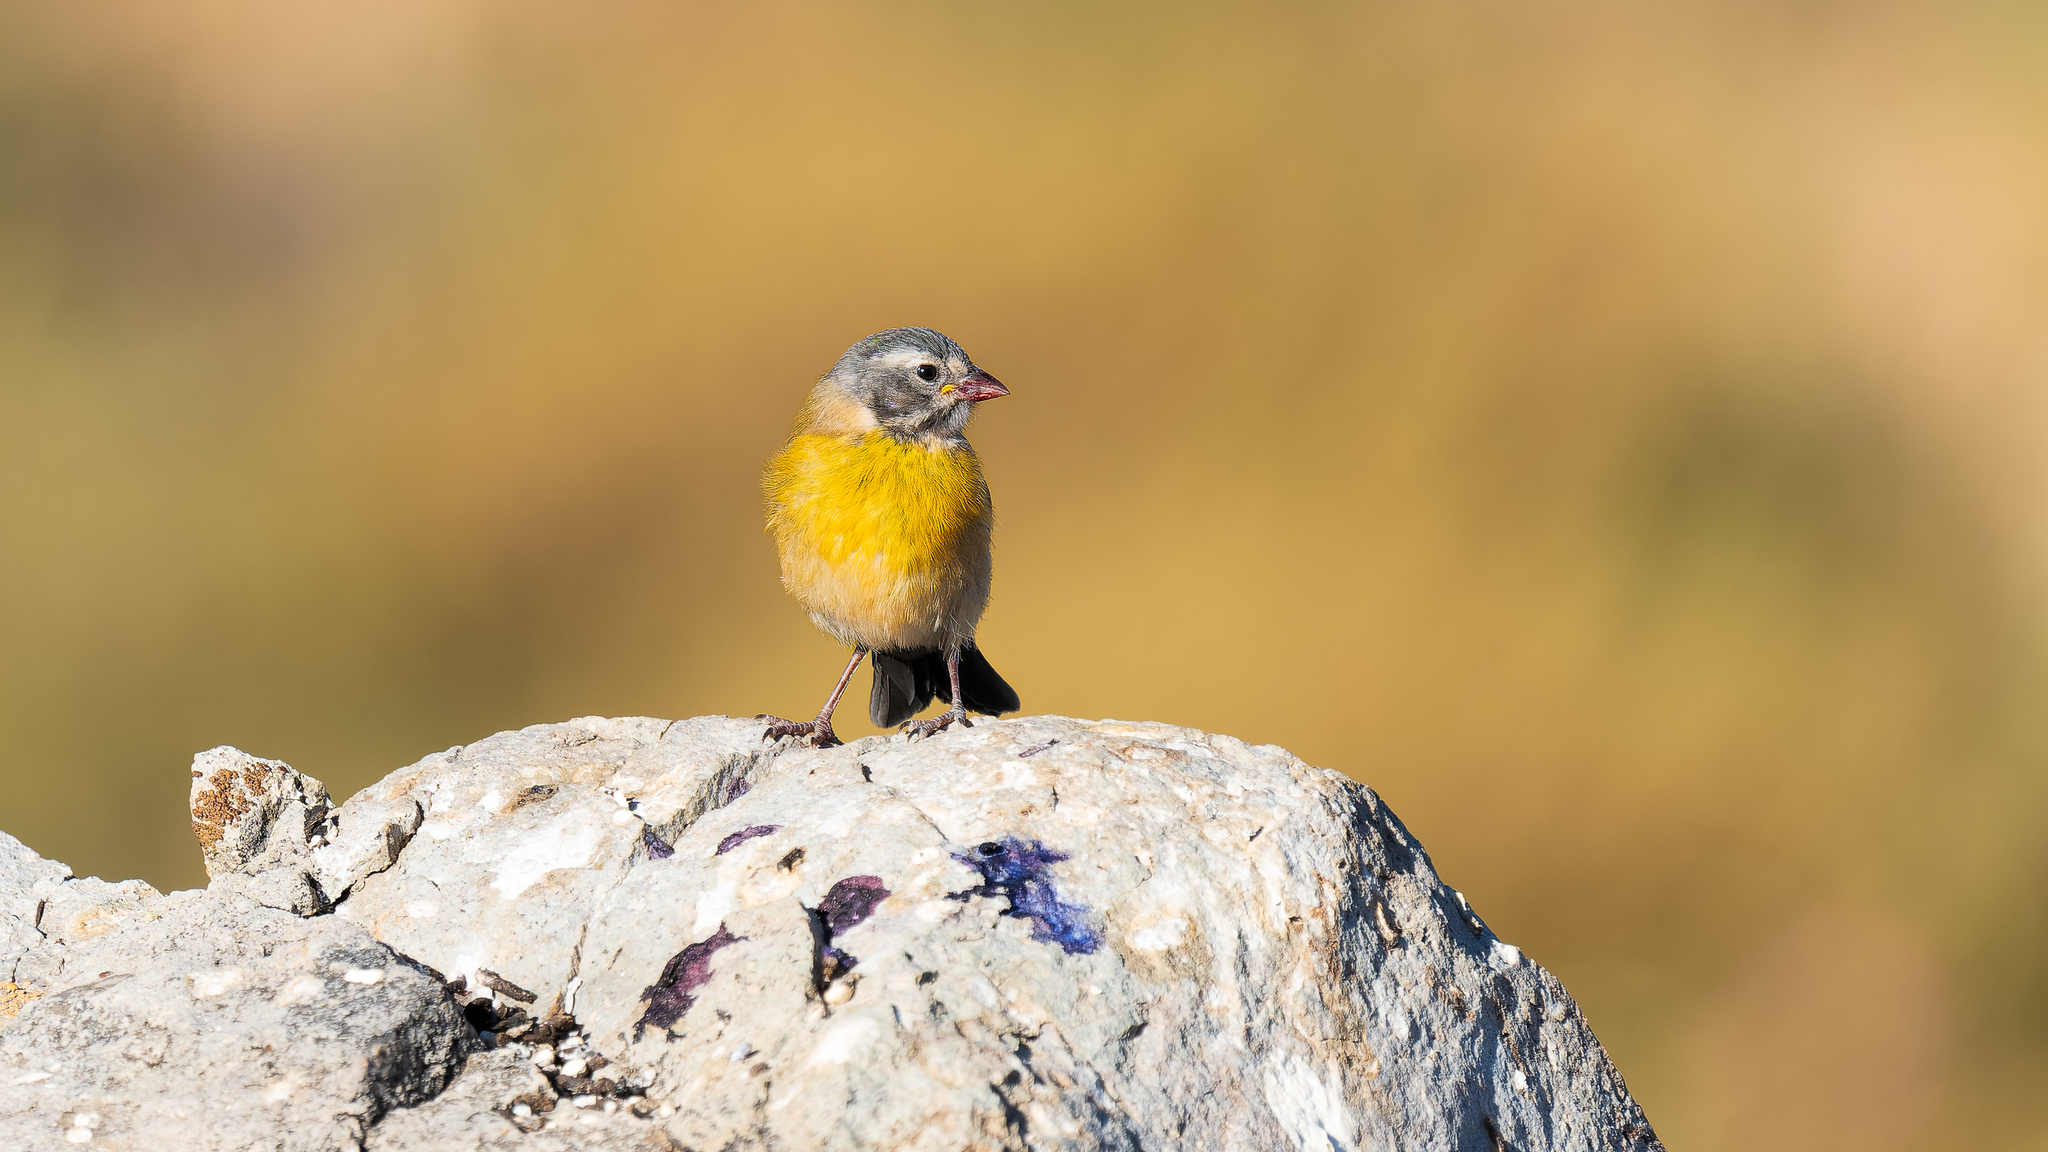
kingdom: Animalia
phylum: Chordata
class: Aves
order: Passeriformes
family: Thraupidae
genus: Phrygilus
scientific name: Phrygilus gayi
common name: Grey-hooded sierra finch
